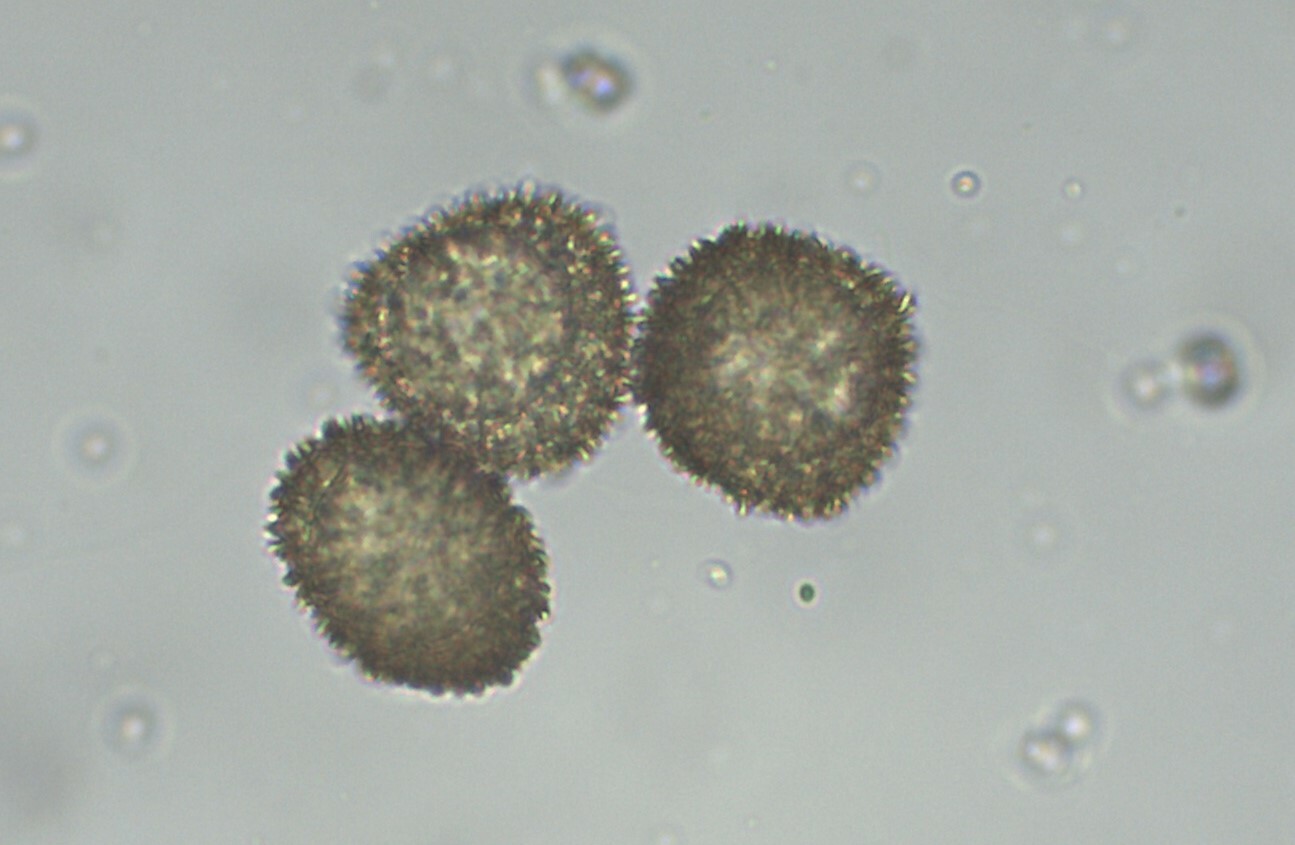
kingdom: Plantae
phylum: Bryophyta
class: Bryopsida
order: Pottiales
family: Pottiaceae
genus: Microbryum
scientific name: Microbryum davallianum
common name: Smallest pottia
